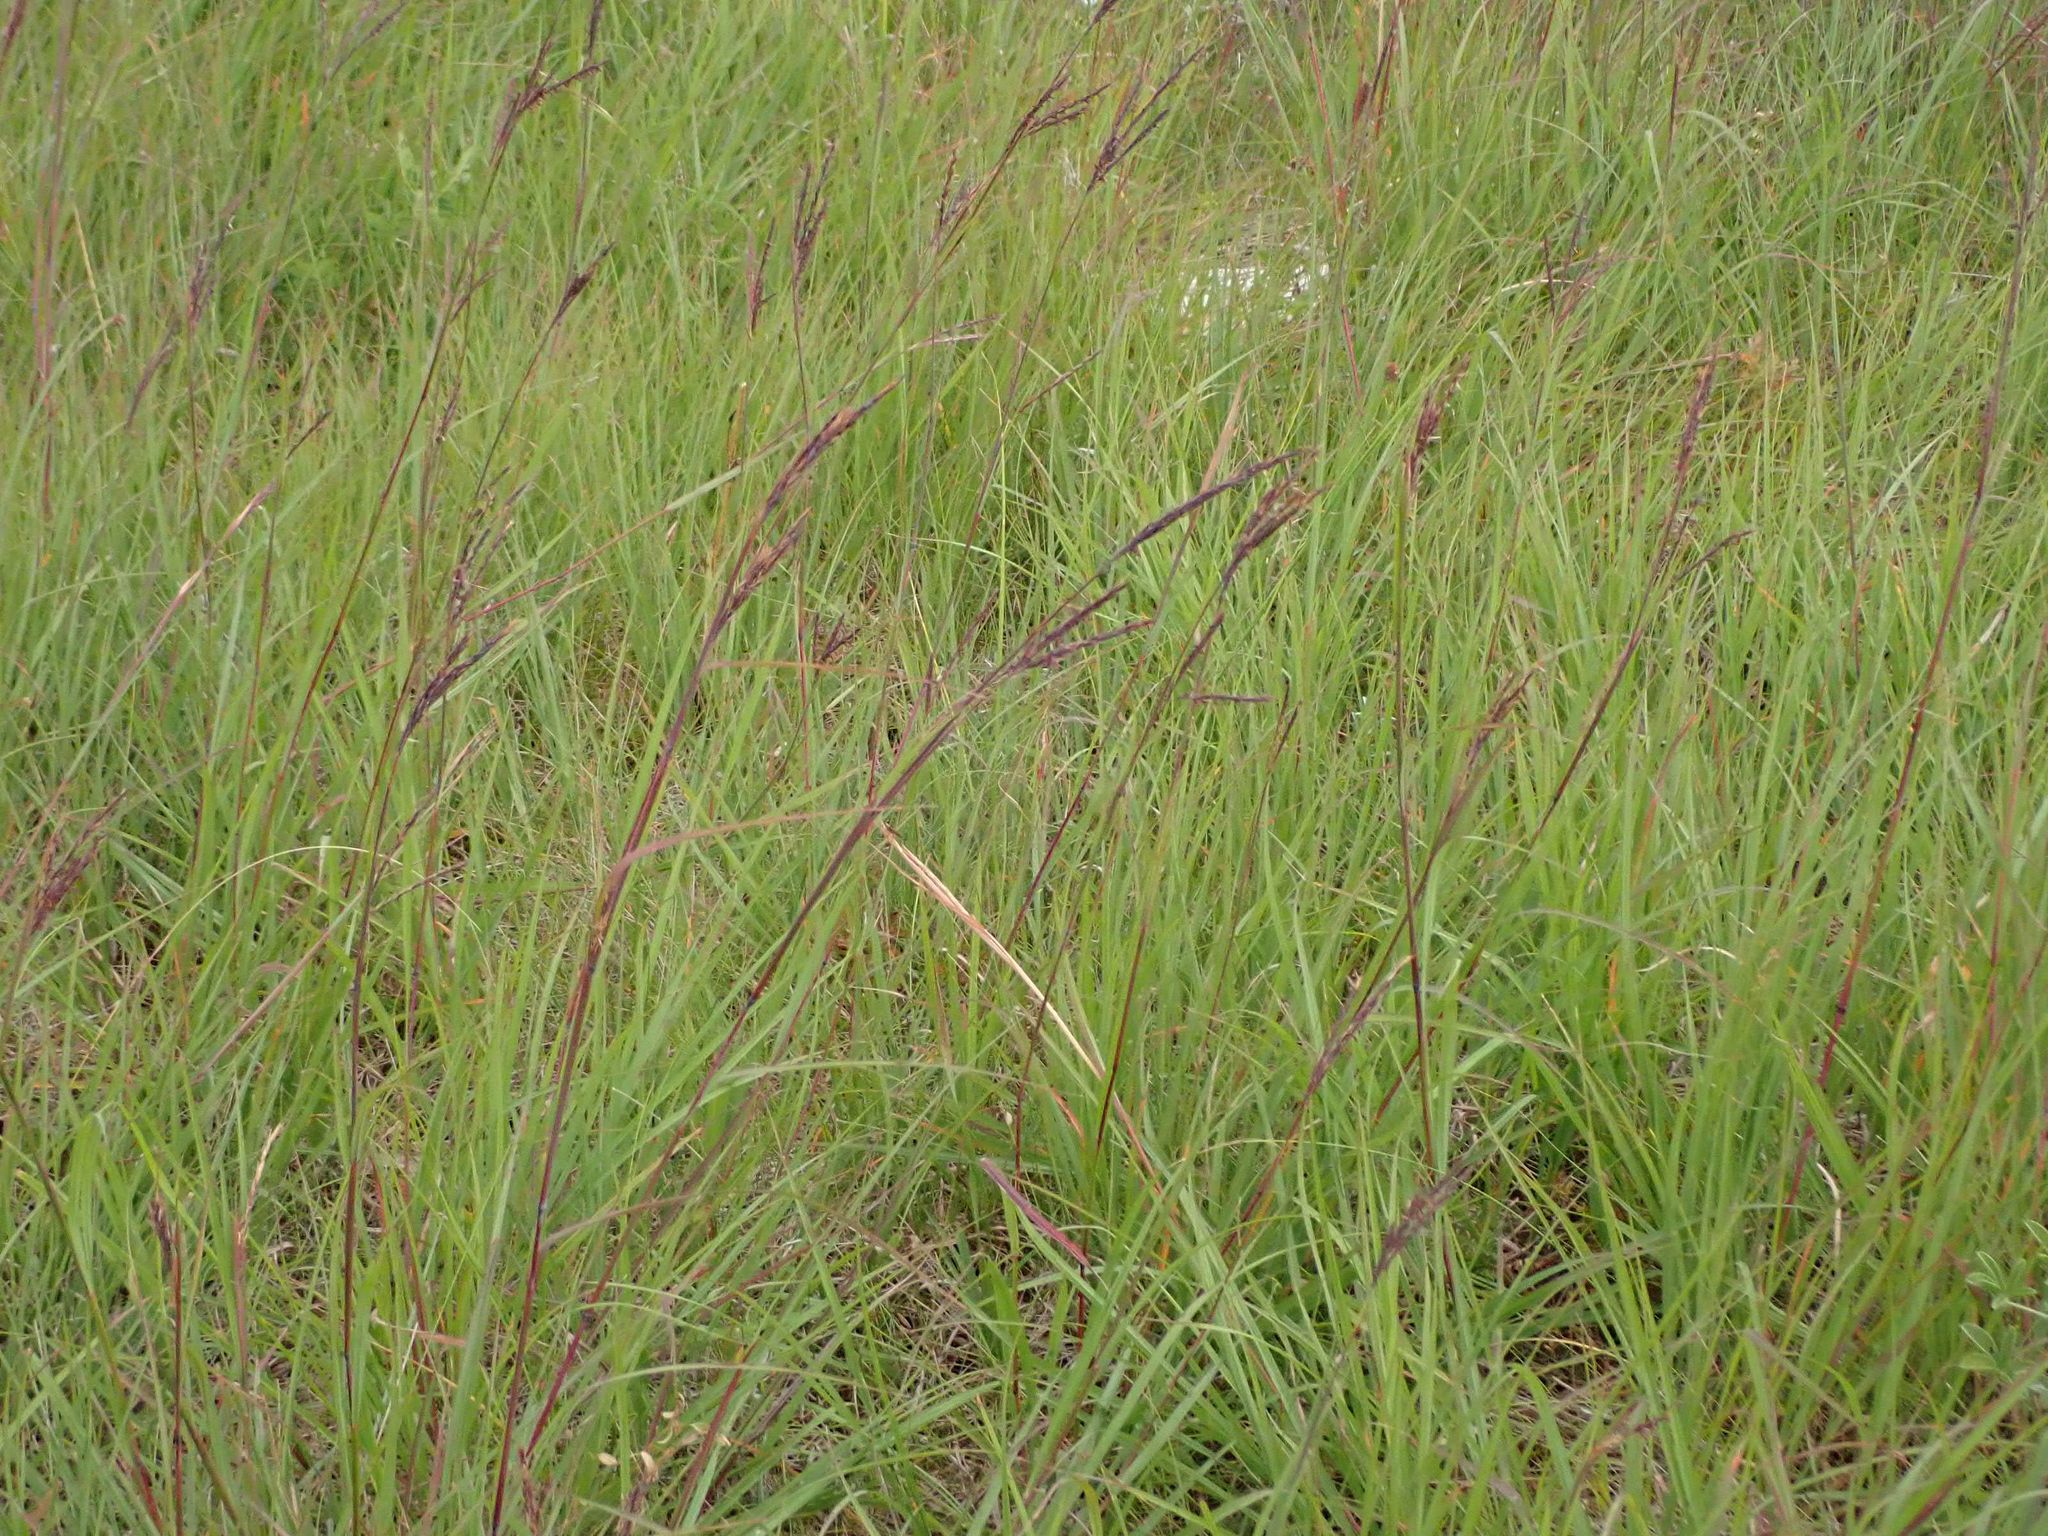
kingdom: Plantae
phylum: Tracheophyta
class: Liliopsida
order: Poales
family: Poaceae
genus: Andropogon
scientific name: Andropogon gerardi
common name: Big bluestem
